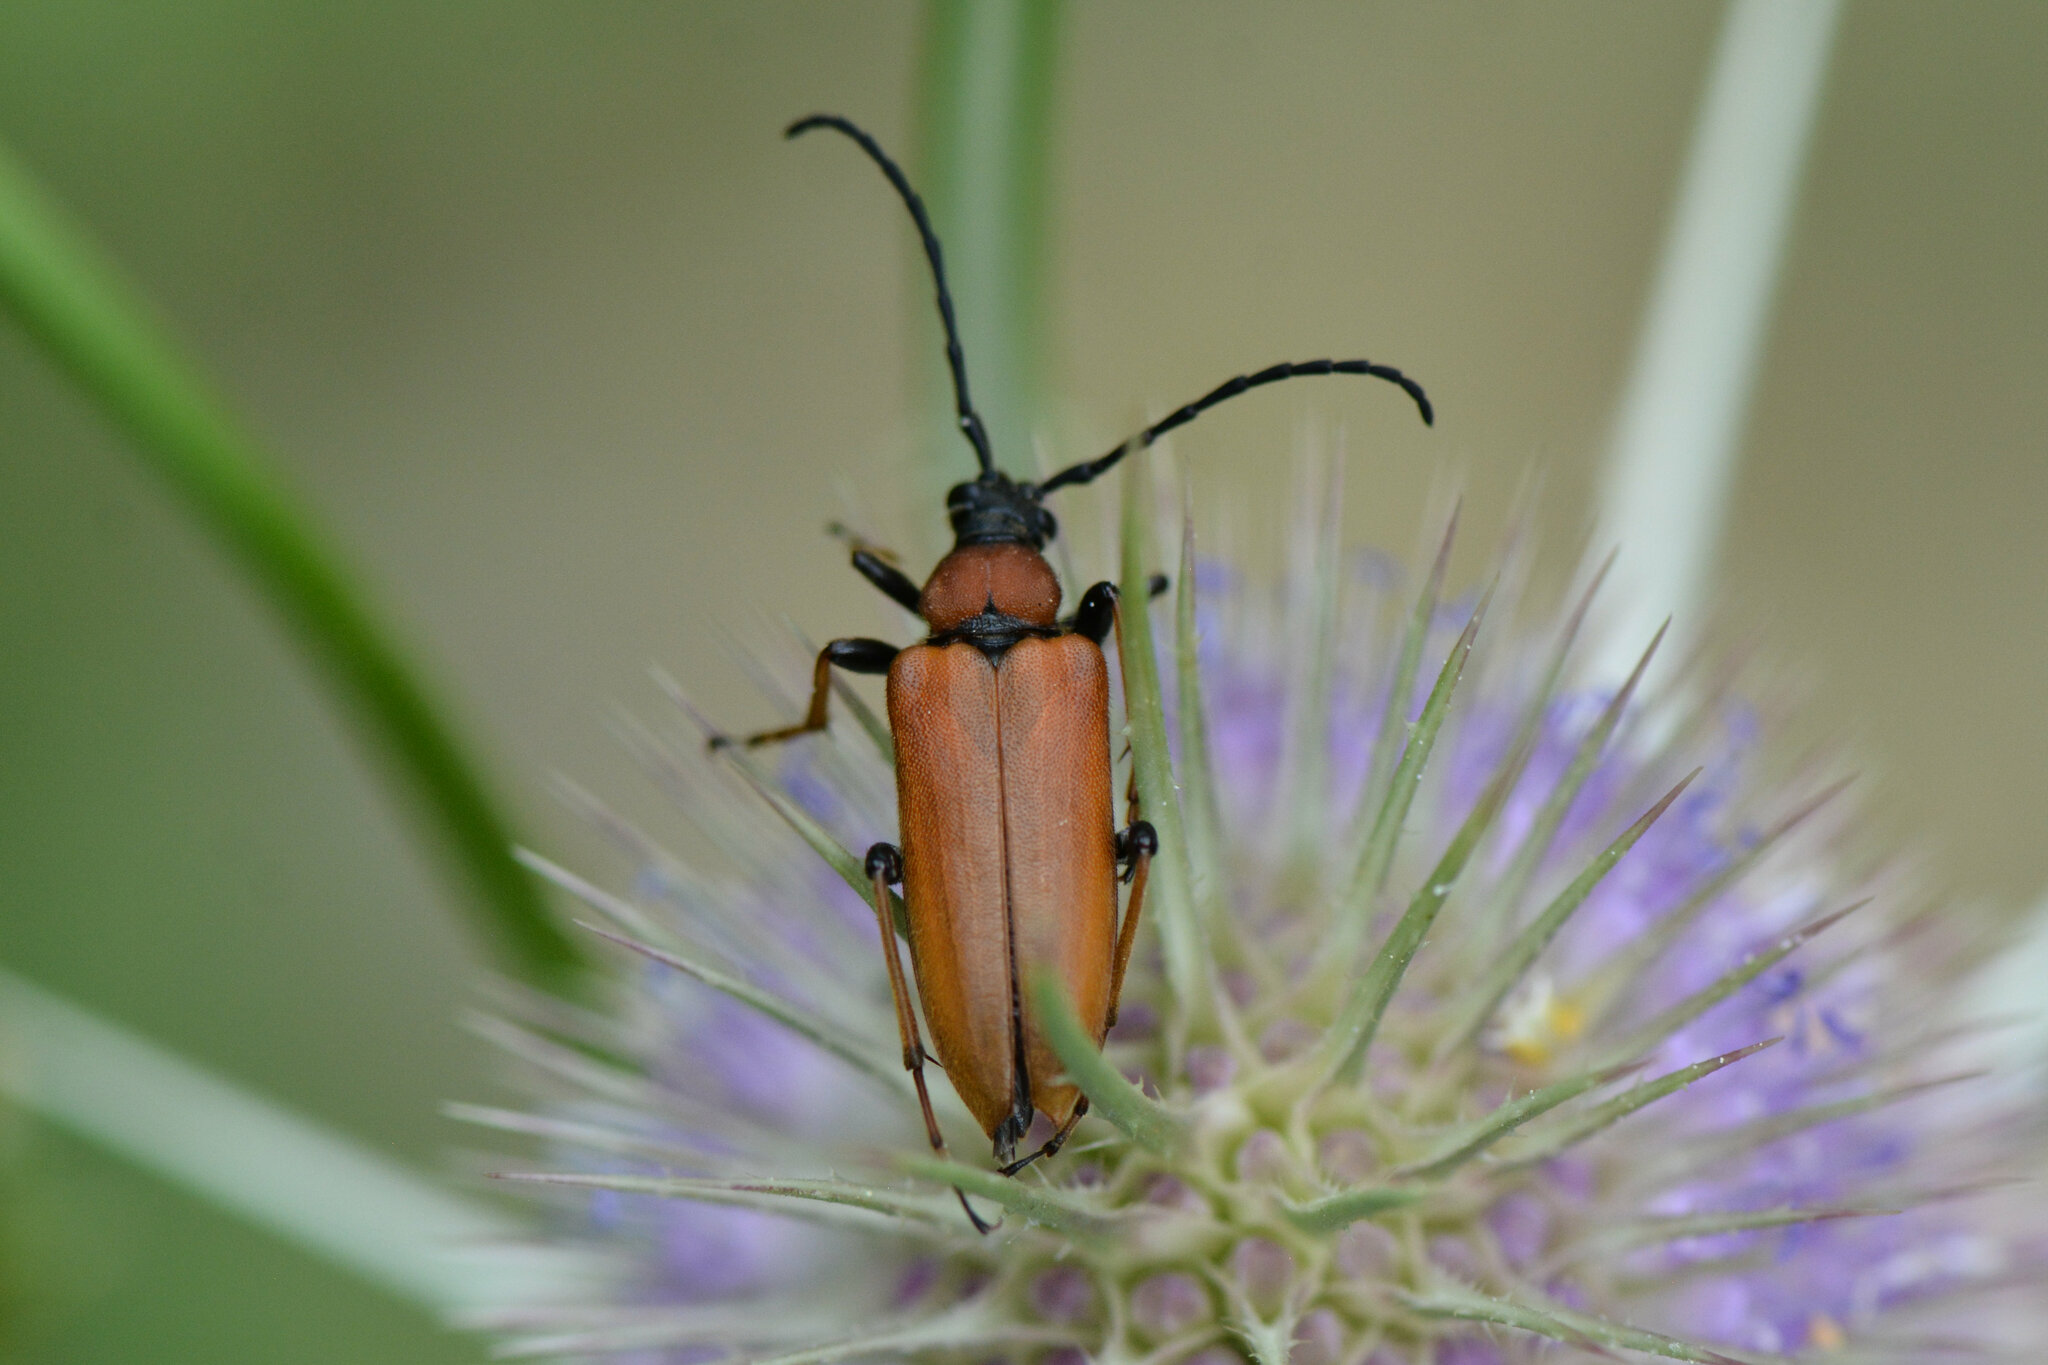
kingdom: Animalia
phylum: Arthropoda
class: Insecta
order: Coleoptera
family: Cerambycidae
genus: Stictoleptura
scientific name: Stictoleptura rubra
